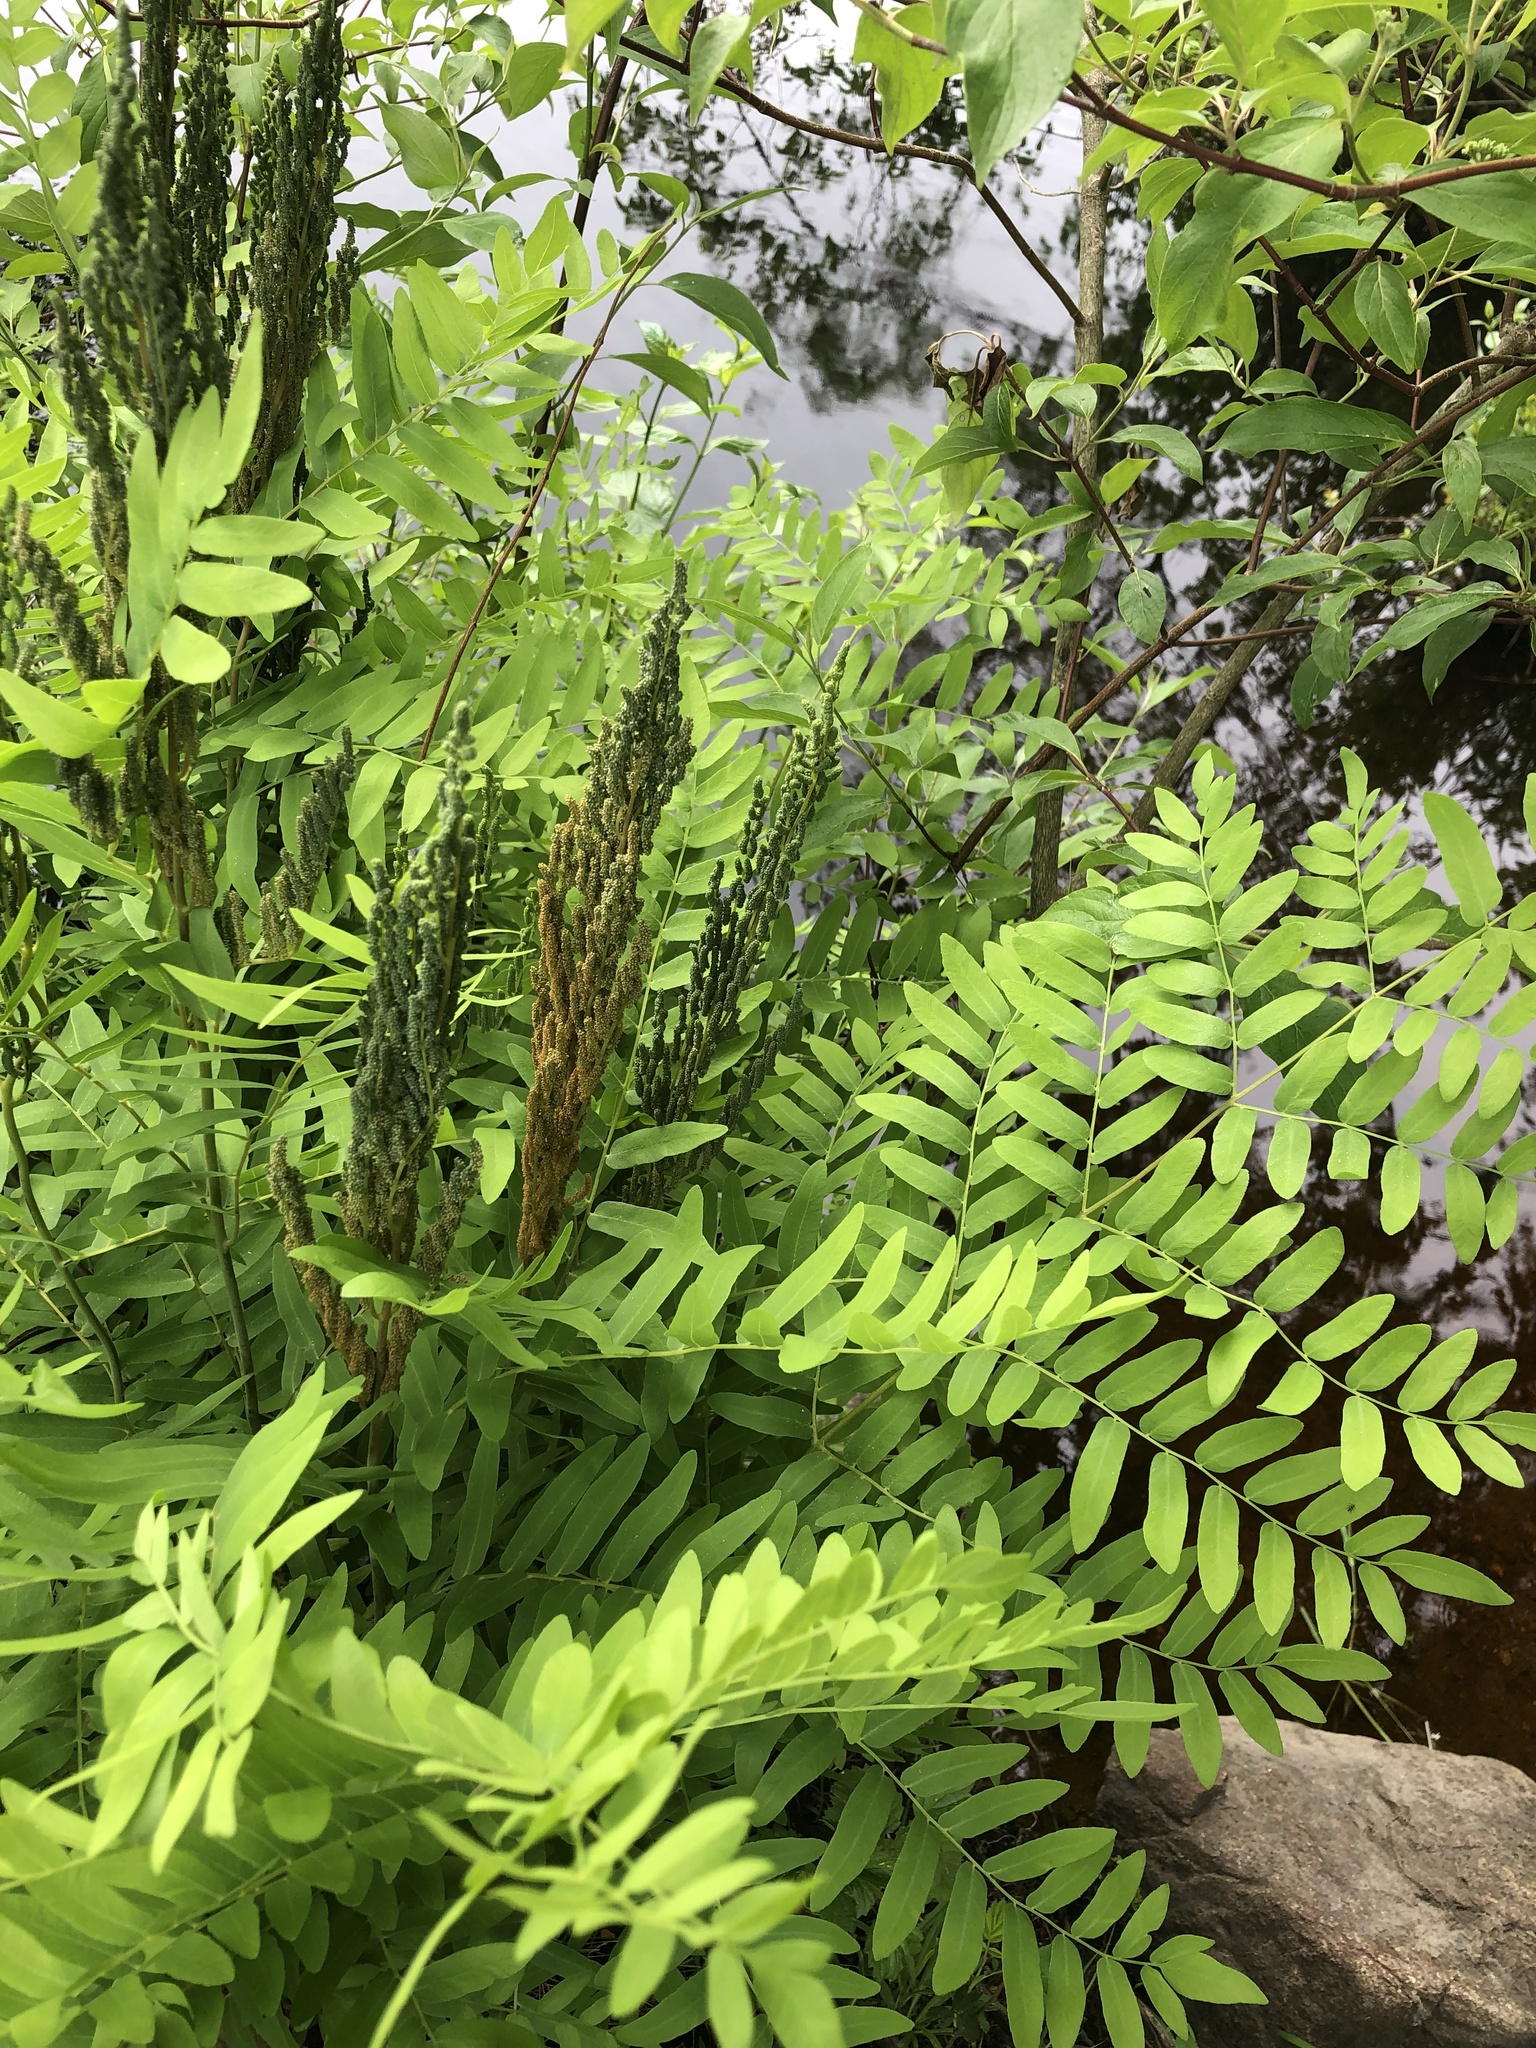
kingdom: Plantae
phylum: Tracheophyta
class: Polypodiopsida
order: Osmundales
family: Osmundaceae
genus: Osmunda
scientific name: Osmunda spectabilis
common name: American royal fern
